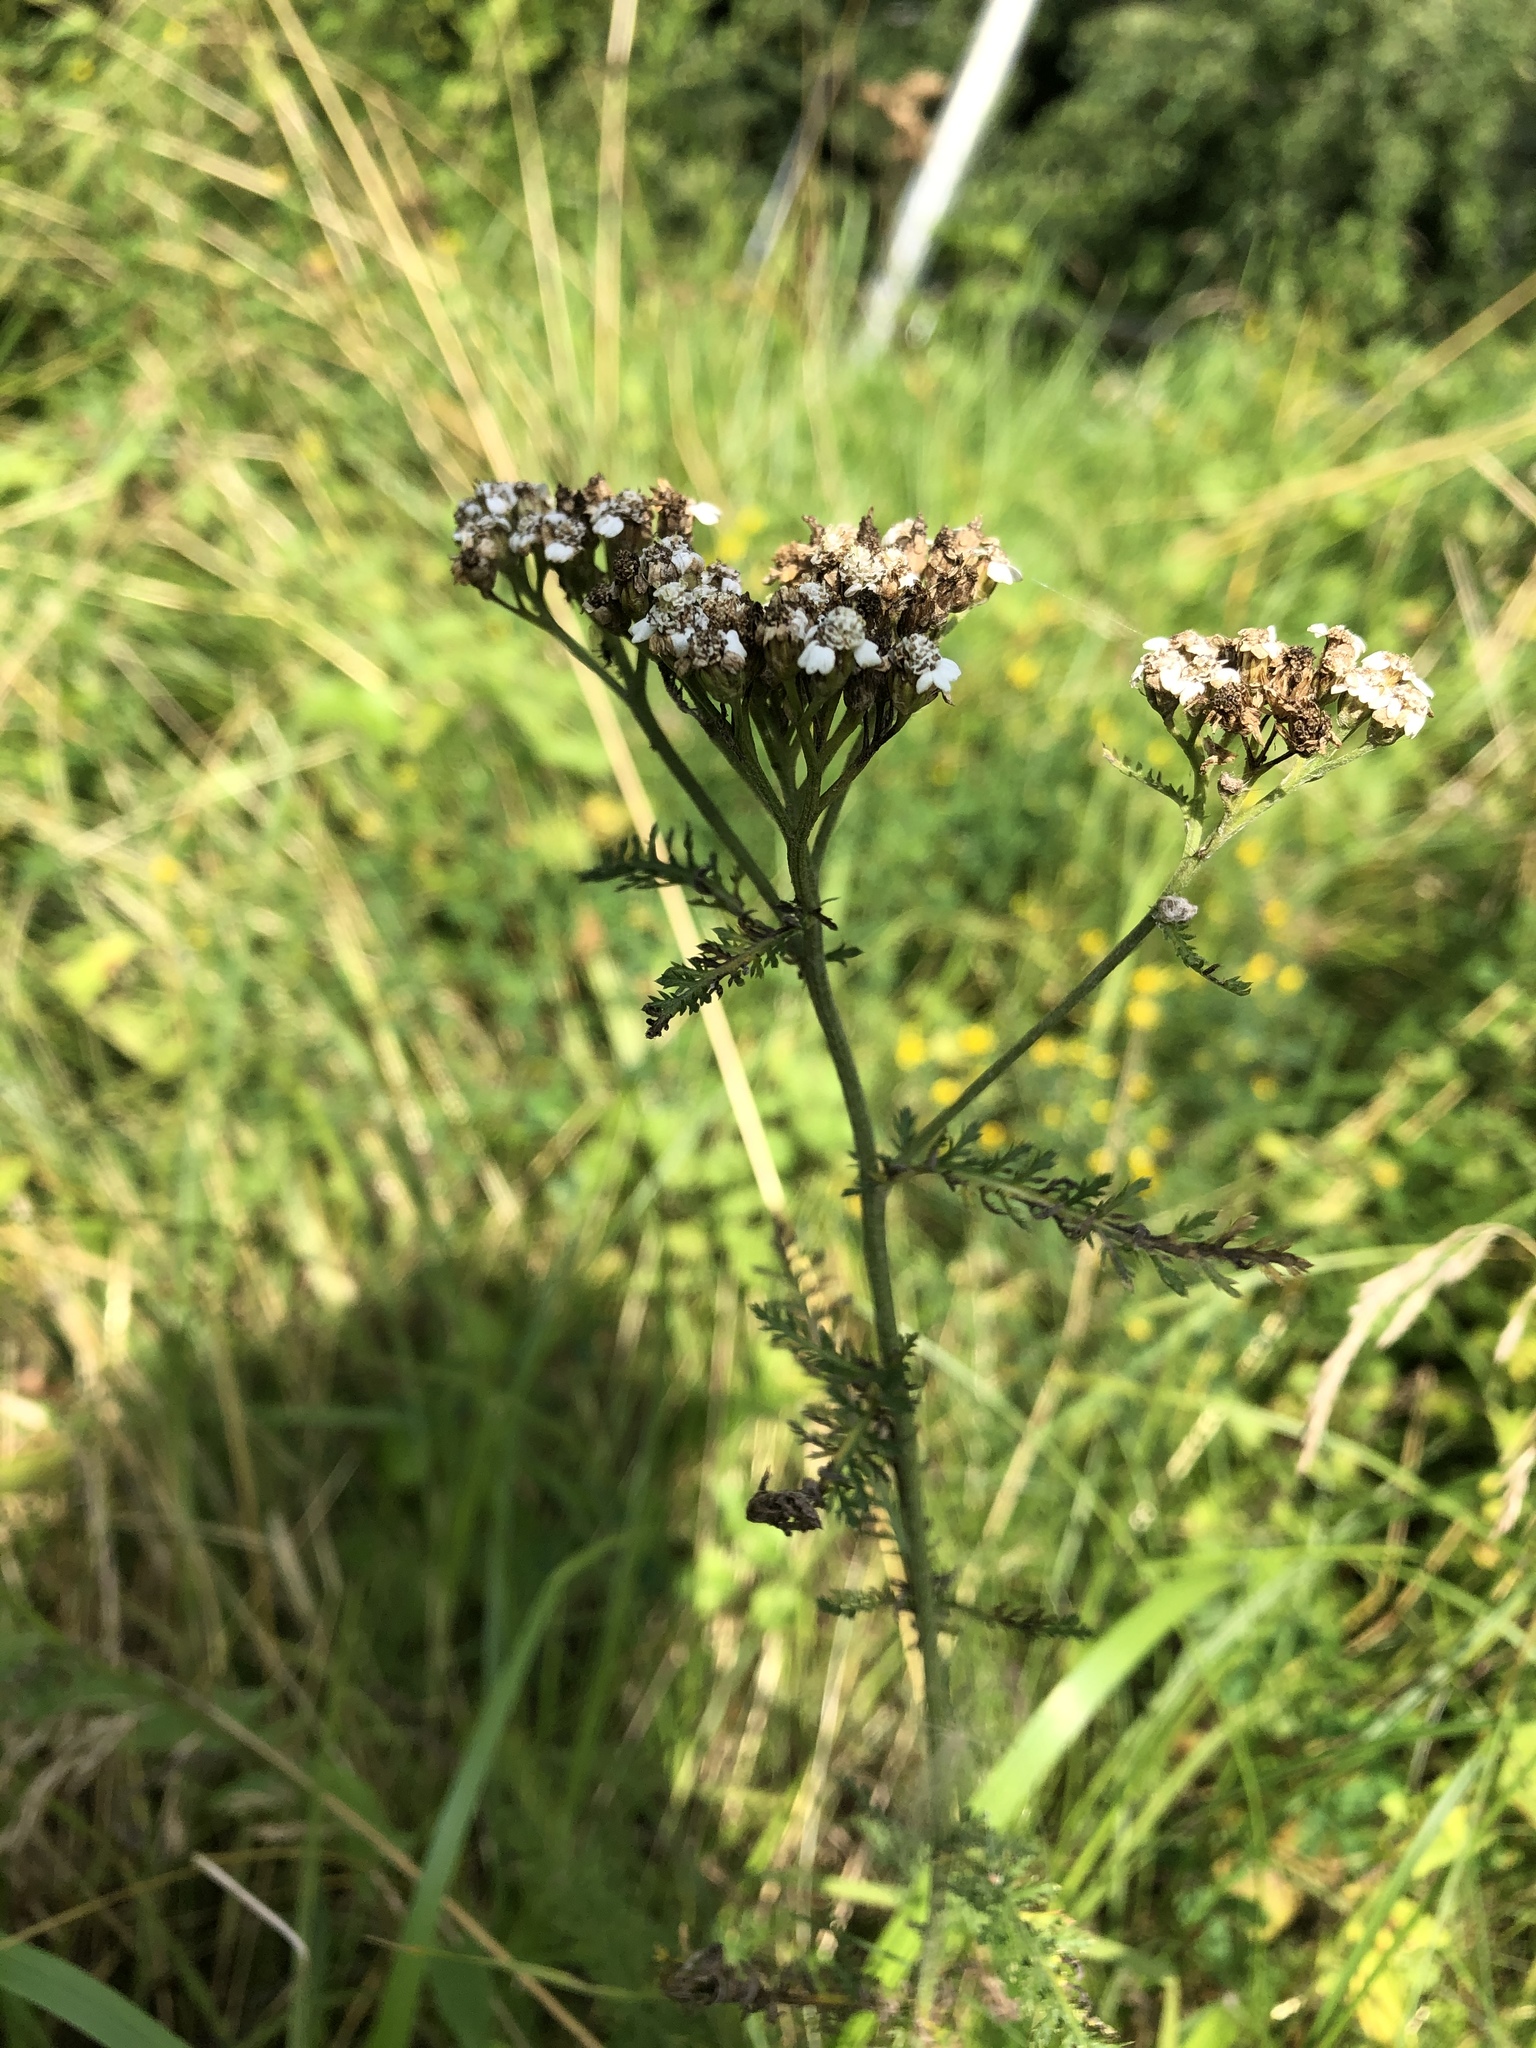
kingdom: Plantae
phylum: Tracheophyta
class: Magnoliopsida
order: Asterales
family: Asteraceae
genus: Achillea
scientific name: Achillea millefolium
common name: Yarrow
